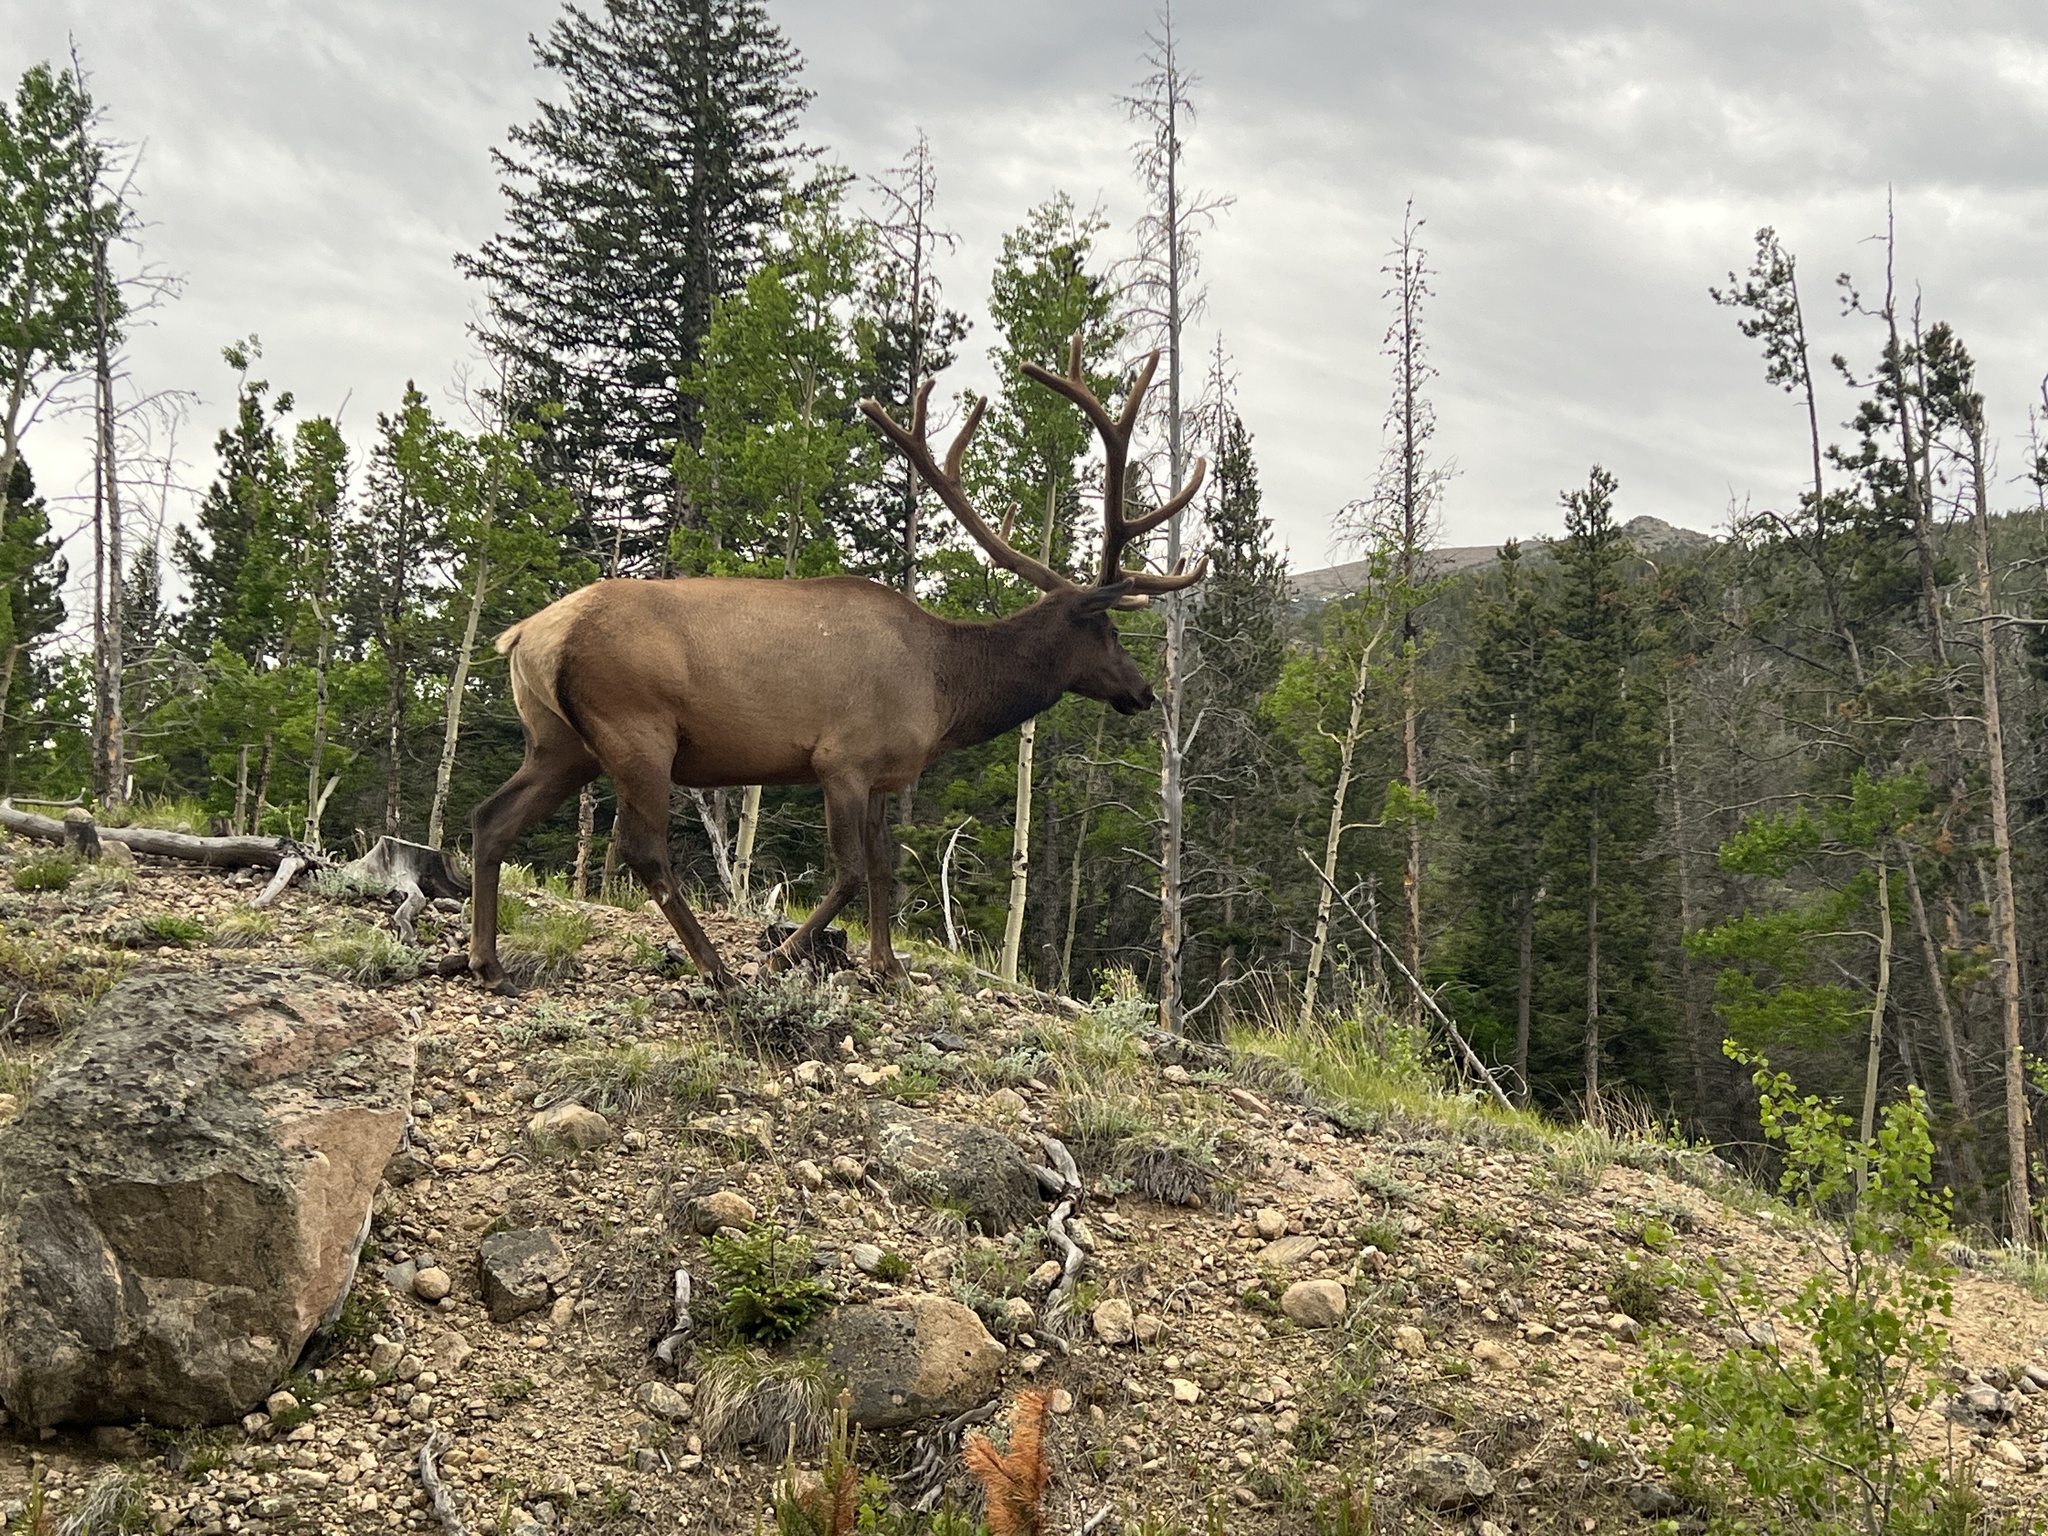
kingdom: Animalia
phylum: Chordata
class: Mammalia
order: Artiodactyla
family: Cervidae
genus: Cervus
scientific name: Cervus elaphus
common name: Red deer
